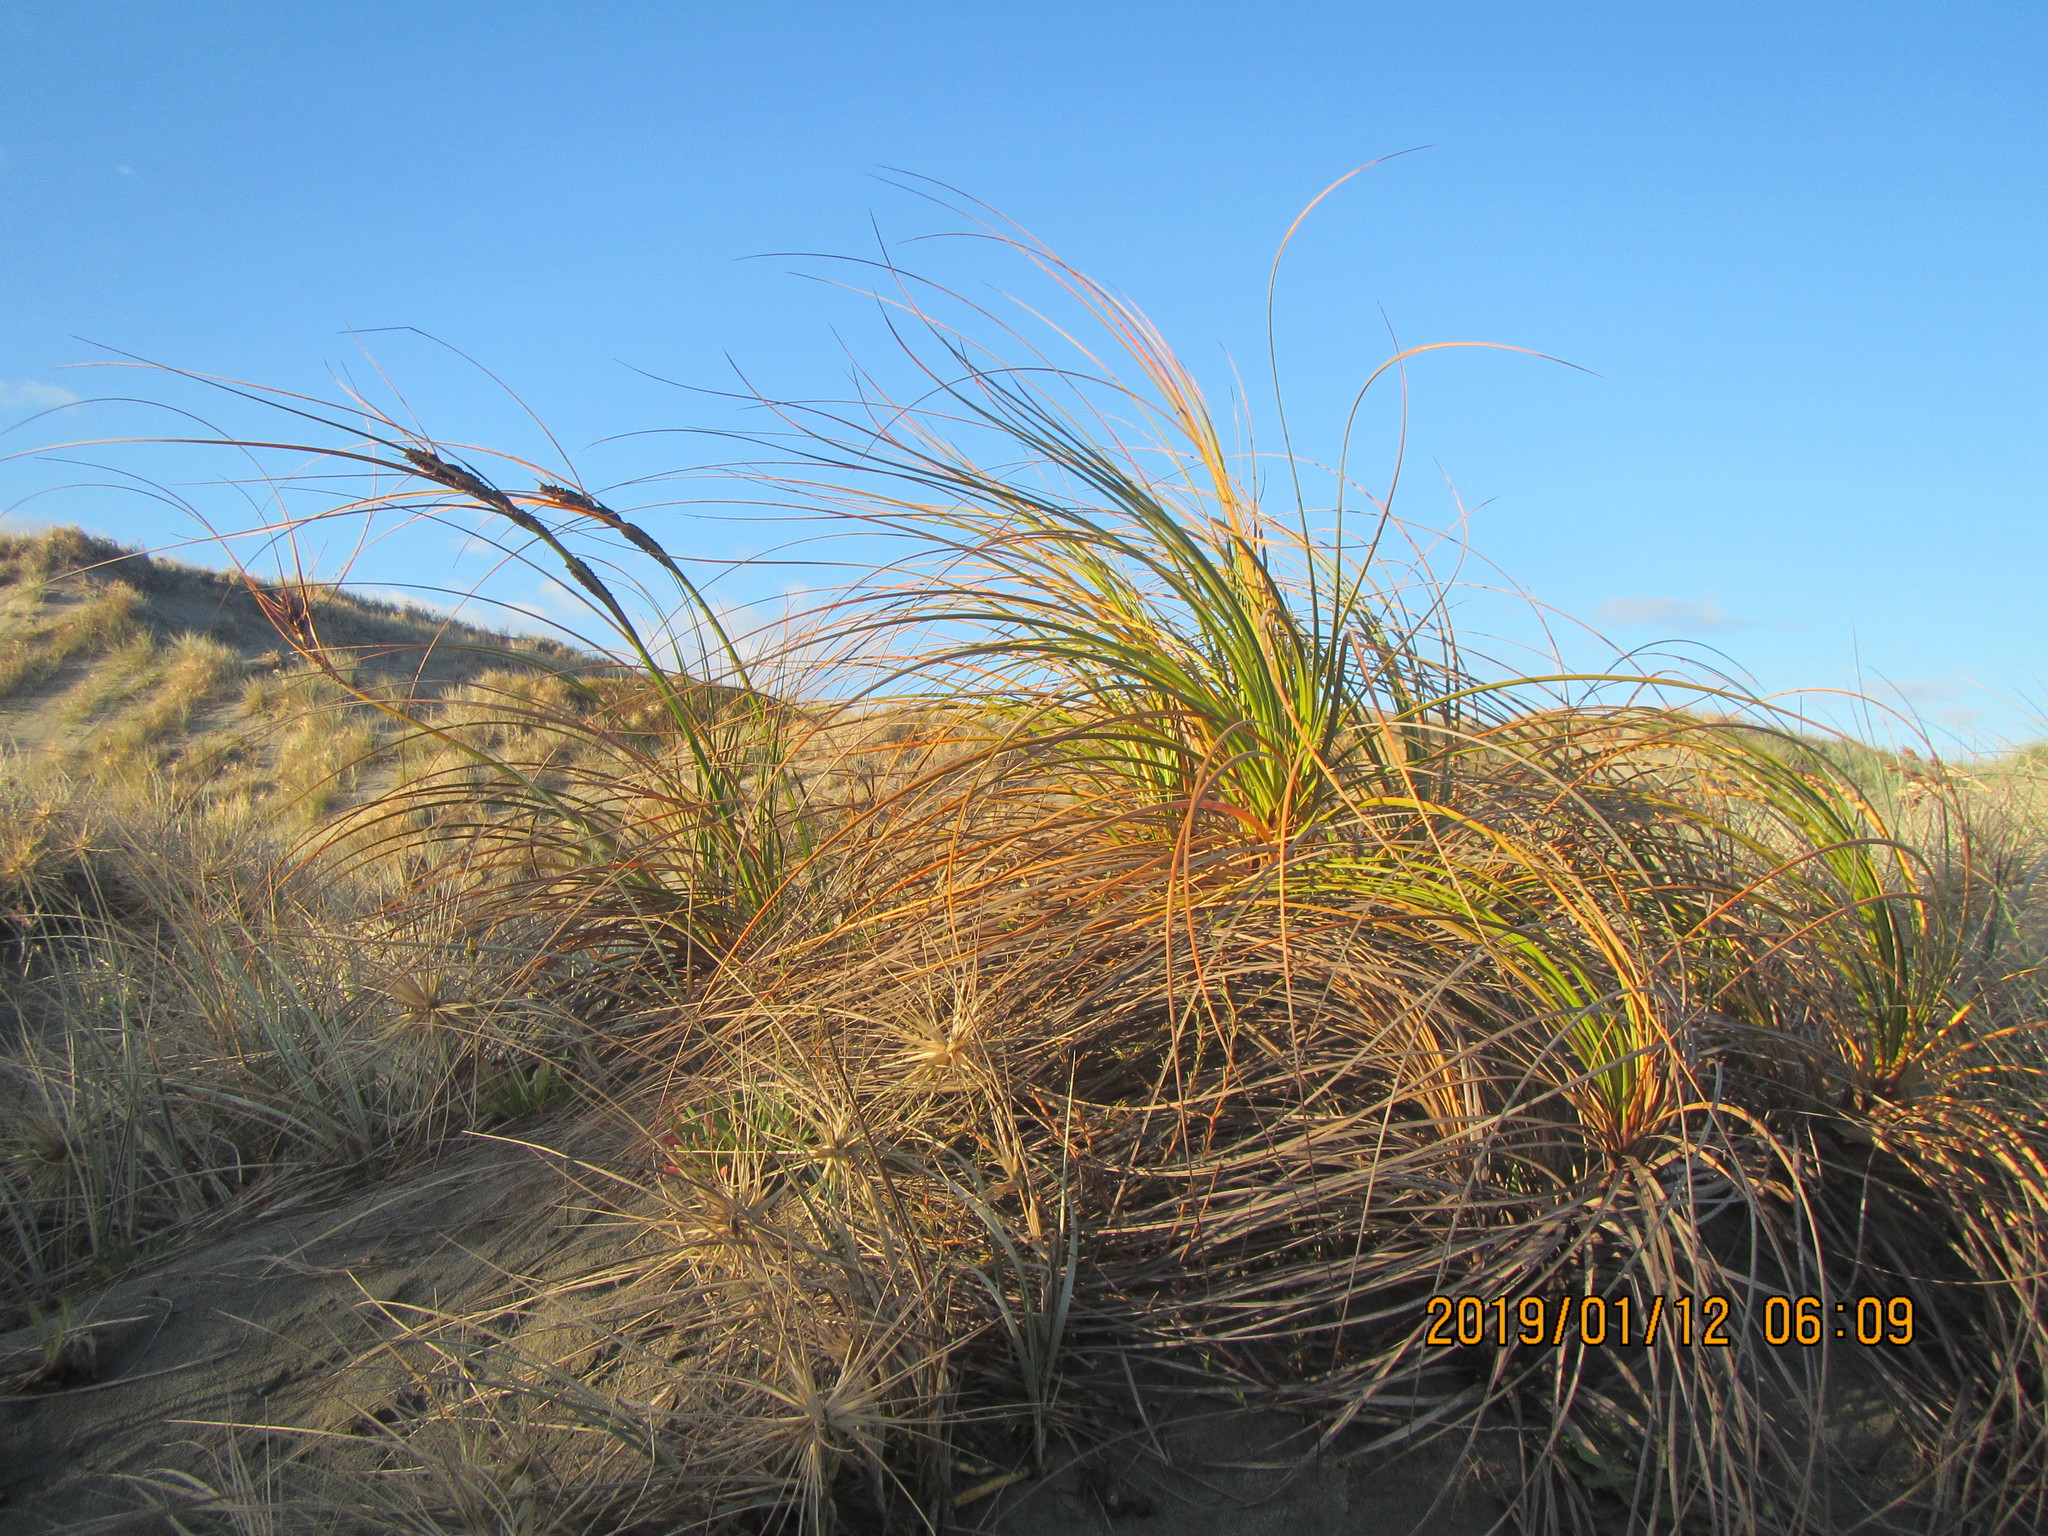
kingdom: Plantae
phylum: Tracheophyta
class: Liliopsida
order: Poales
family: Cyperaceae
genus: Ficinia
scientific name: Ficinia spiralis
